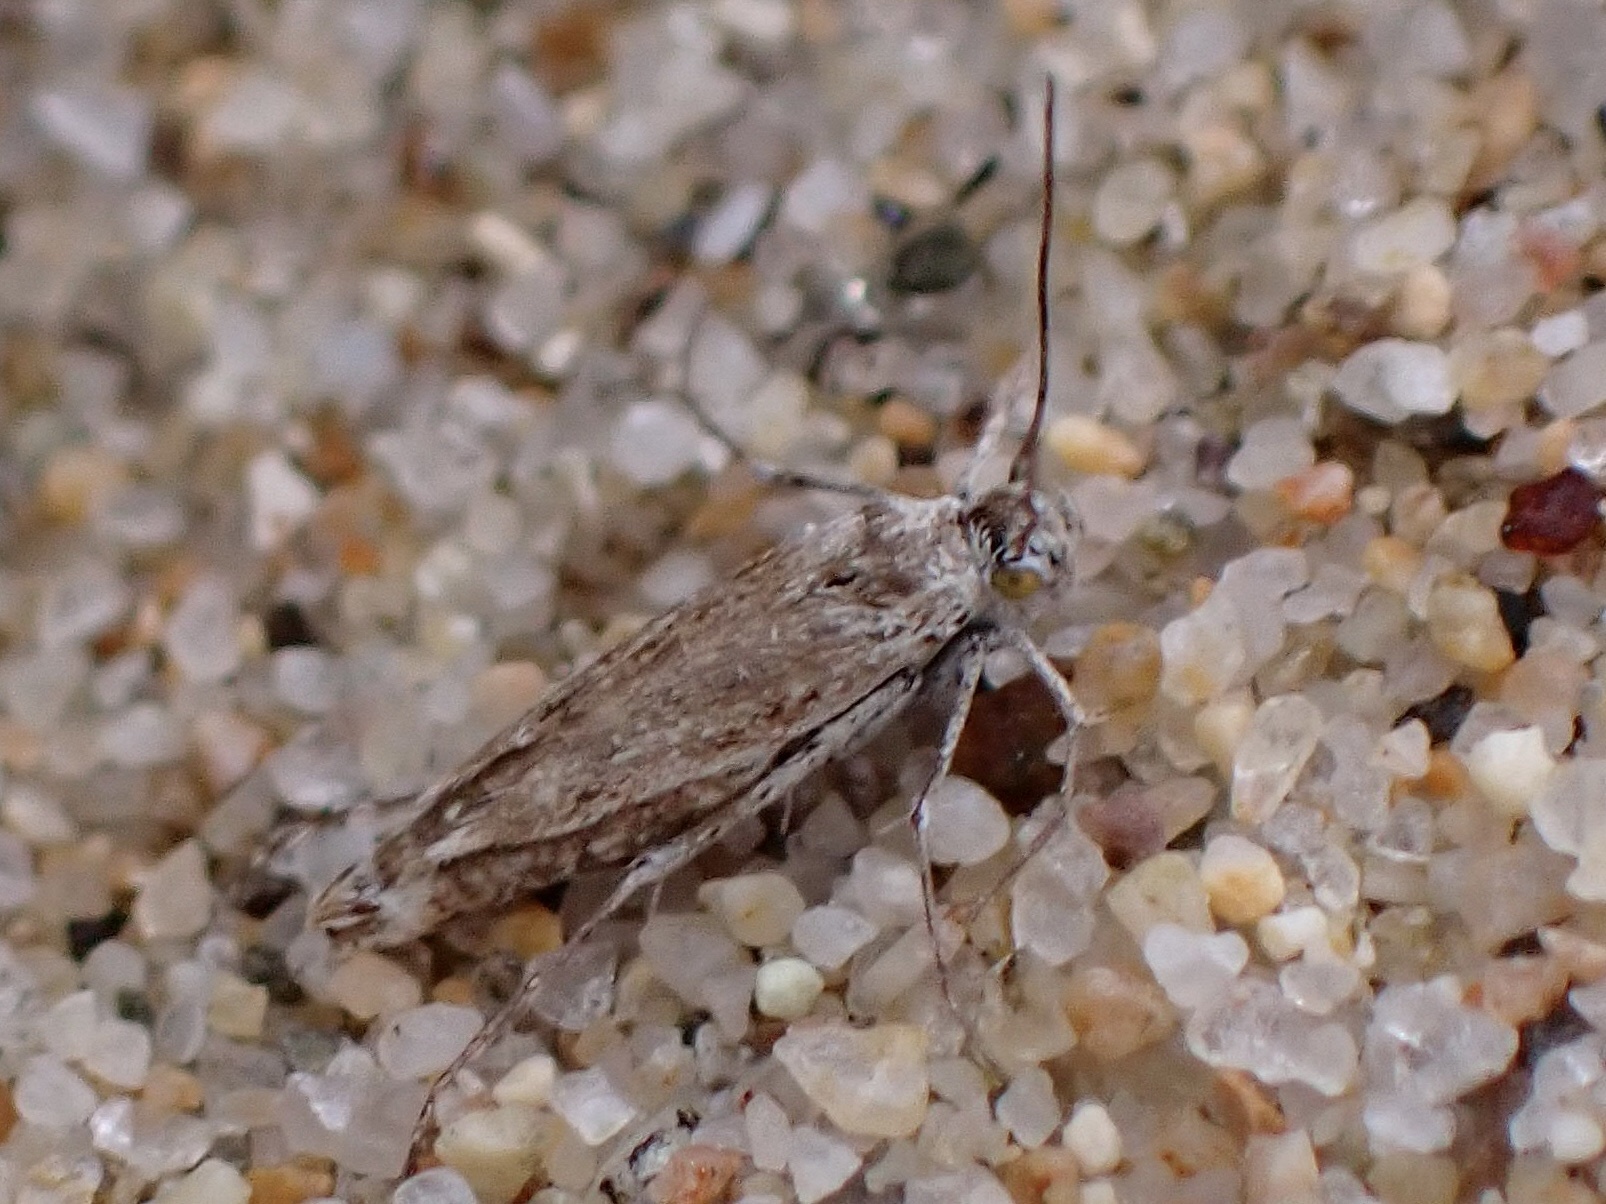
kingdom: Animalia
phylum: Arthropoda
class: Insecta
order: Lepidoptera
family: Scythrididae
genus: Areniscythris
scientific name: Areniscythris brachypteris
